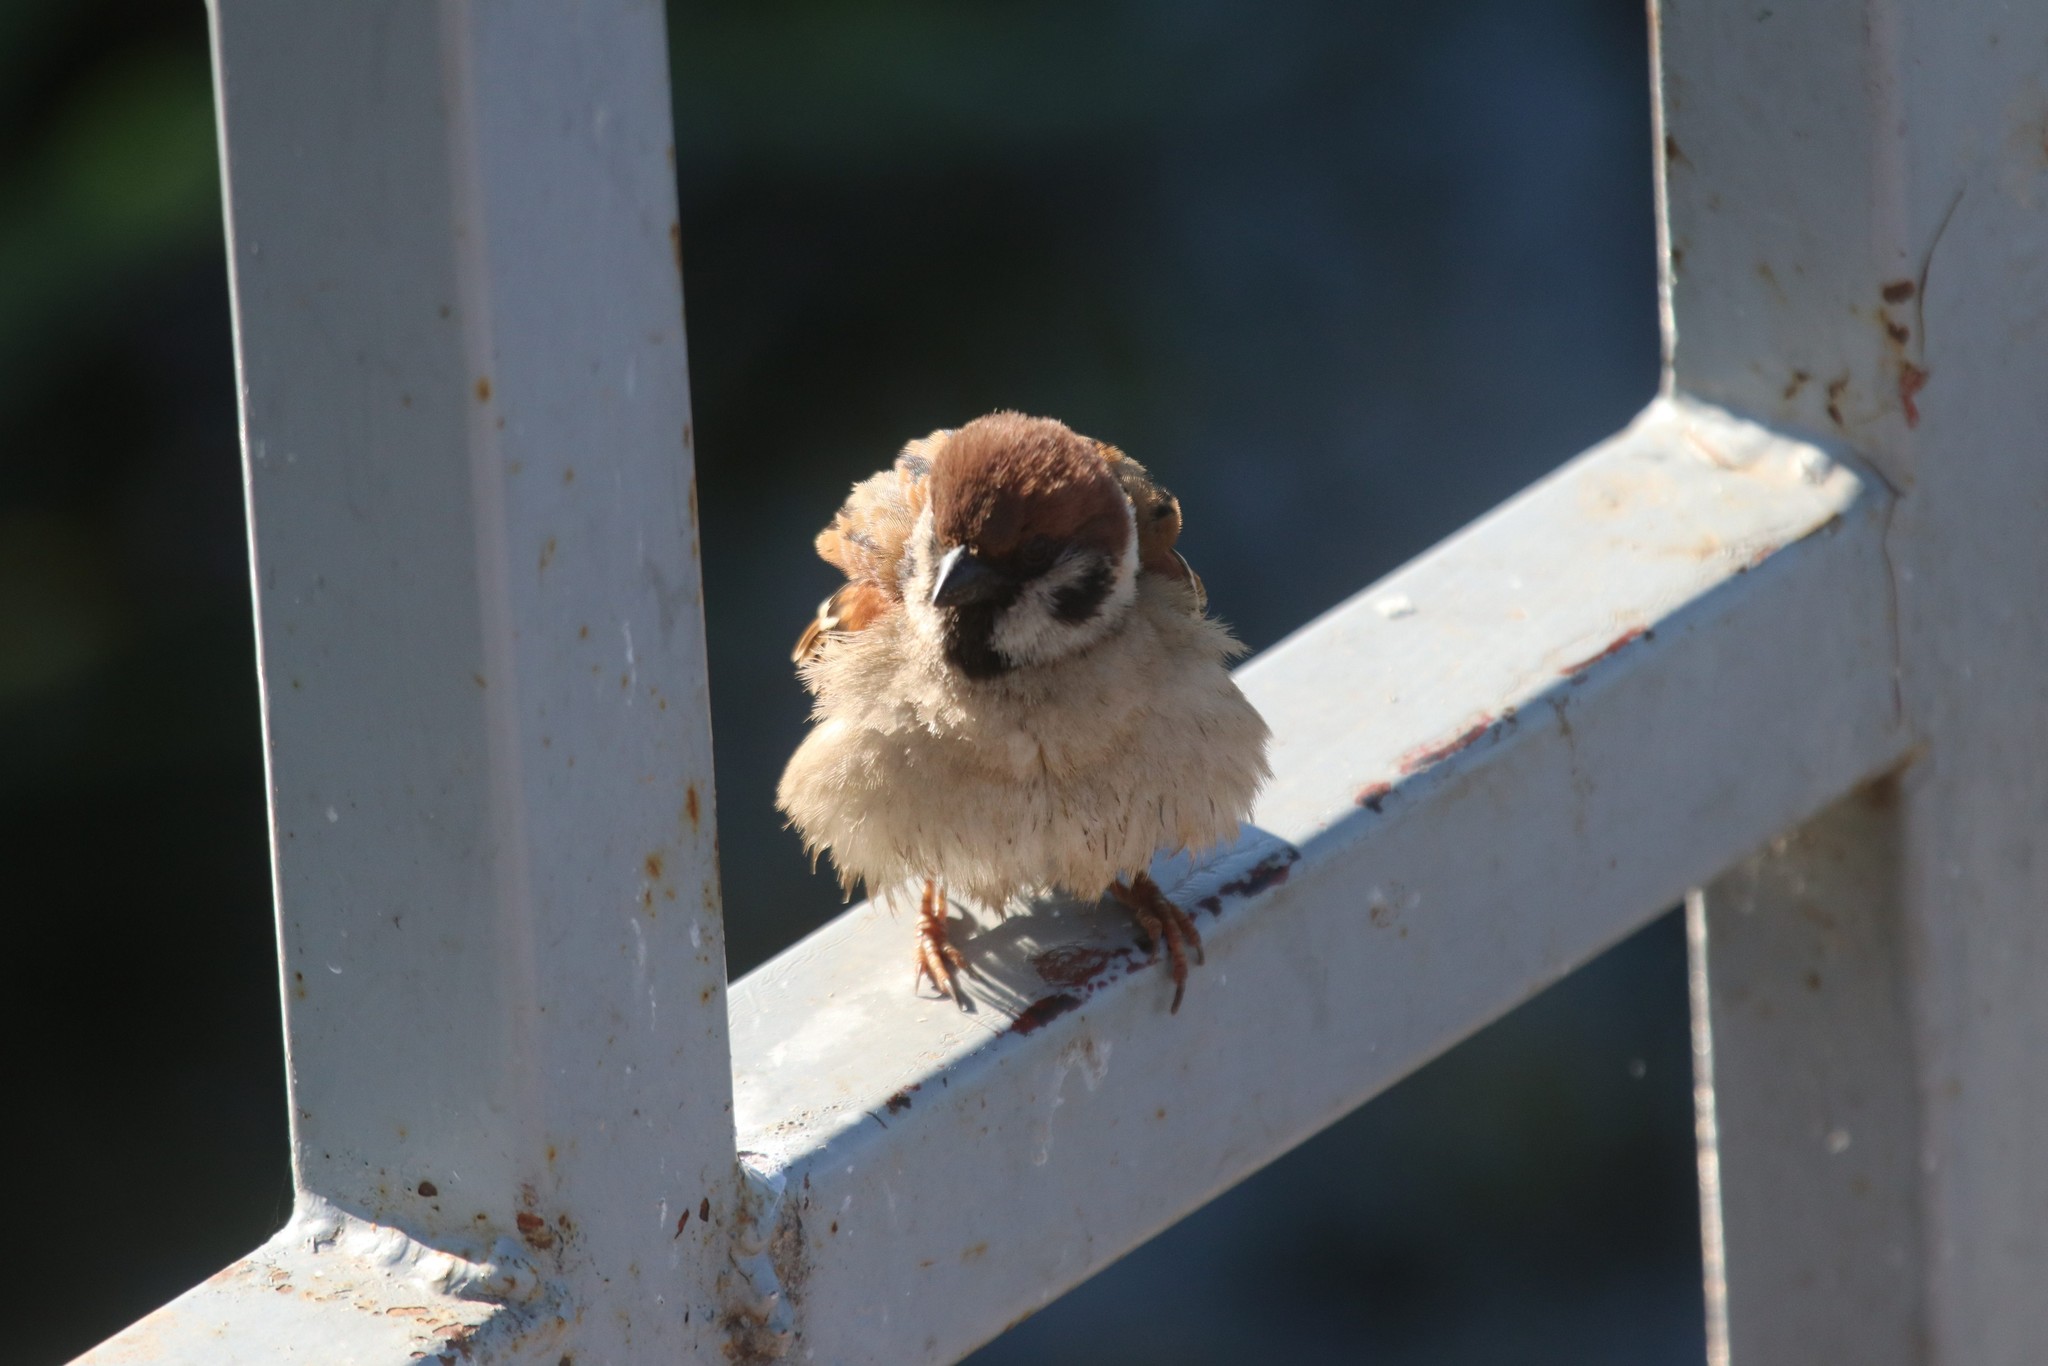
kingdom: Animalia
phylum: Chordata
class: Aves
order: Passeriformes
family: Passeridae
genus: Passer
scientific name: Passer montanus
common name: Eurasian tree sparrow
